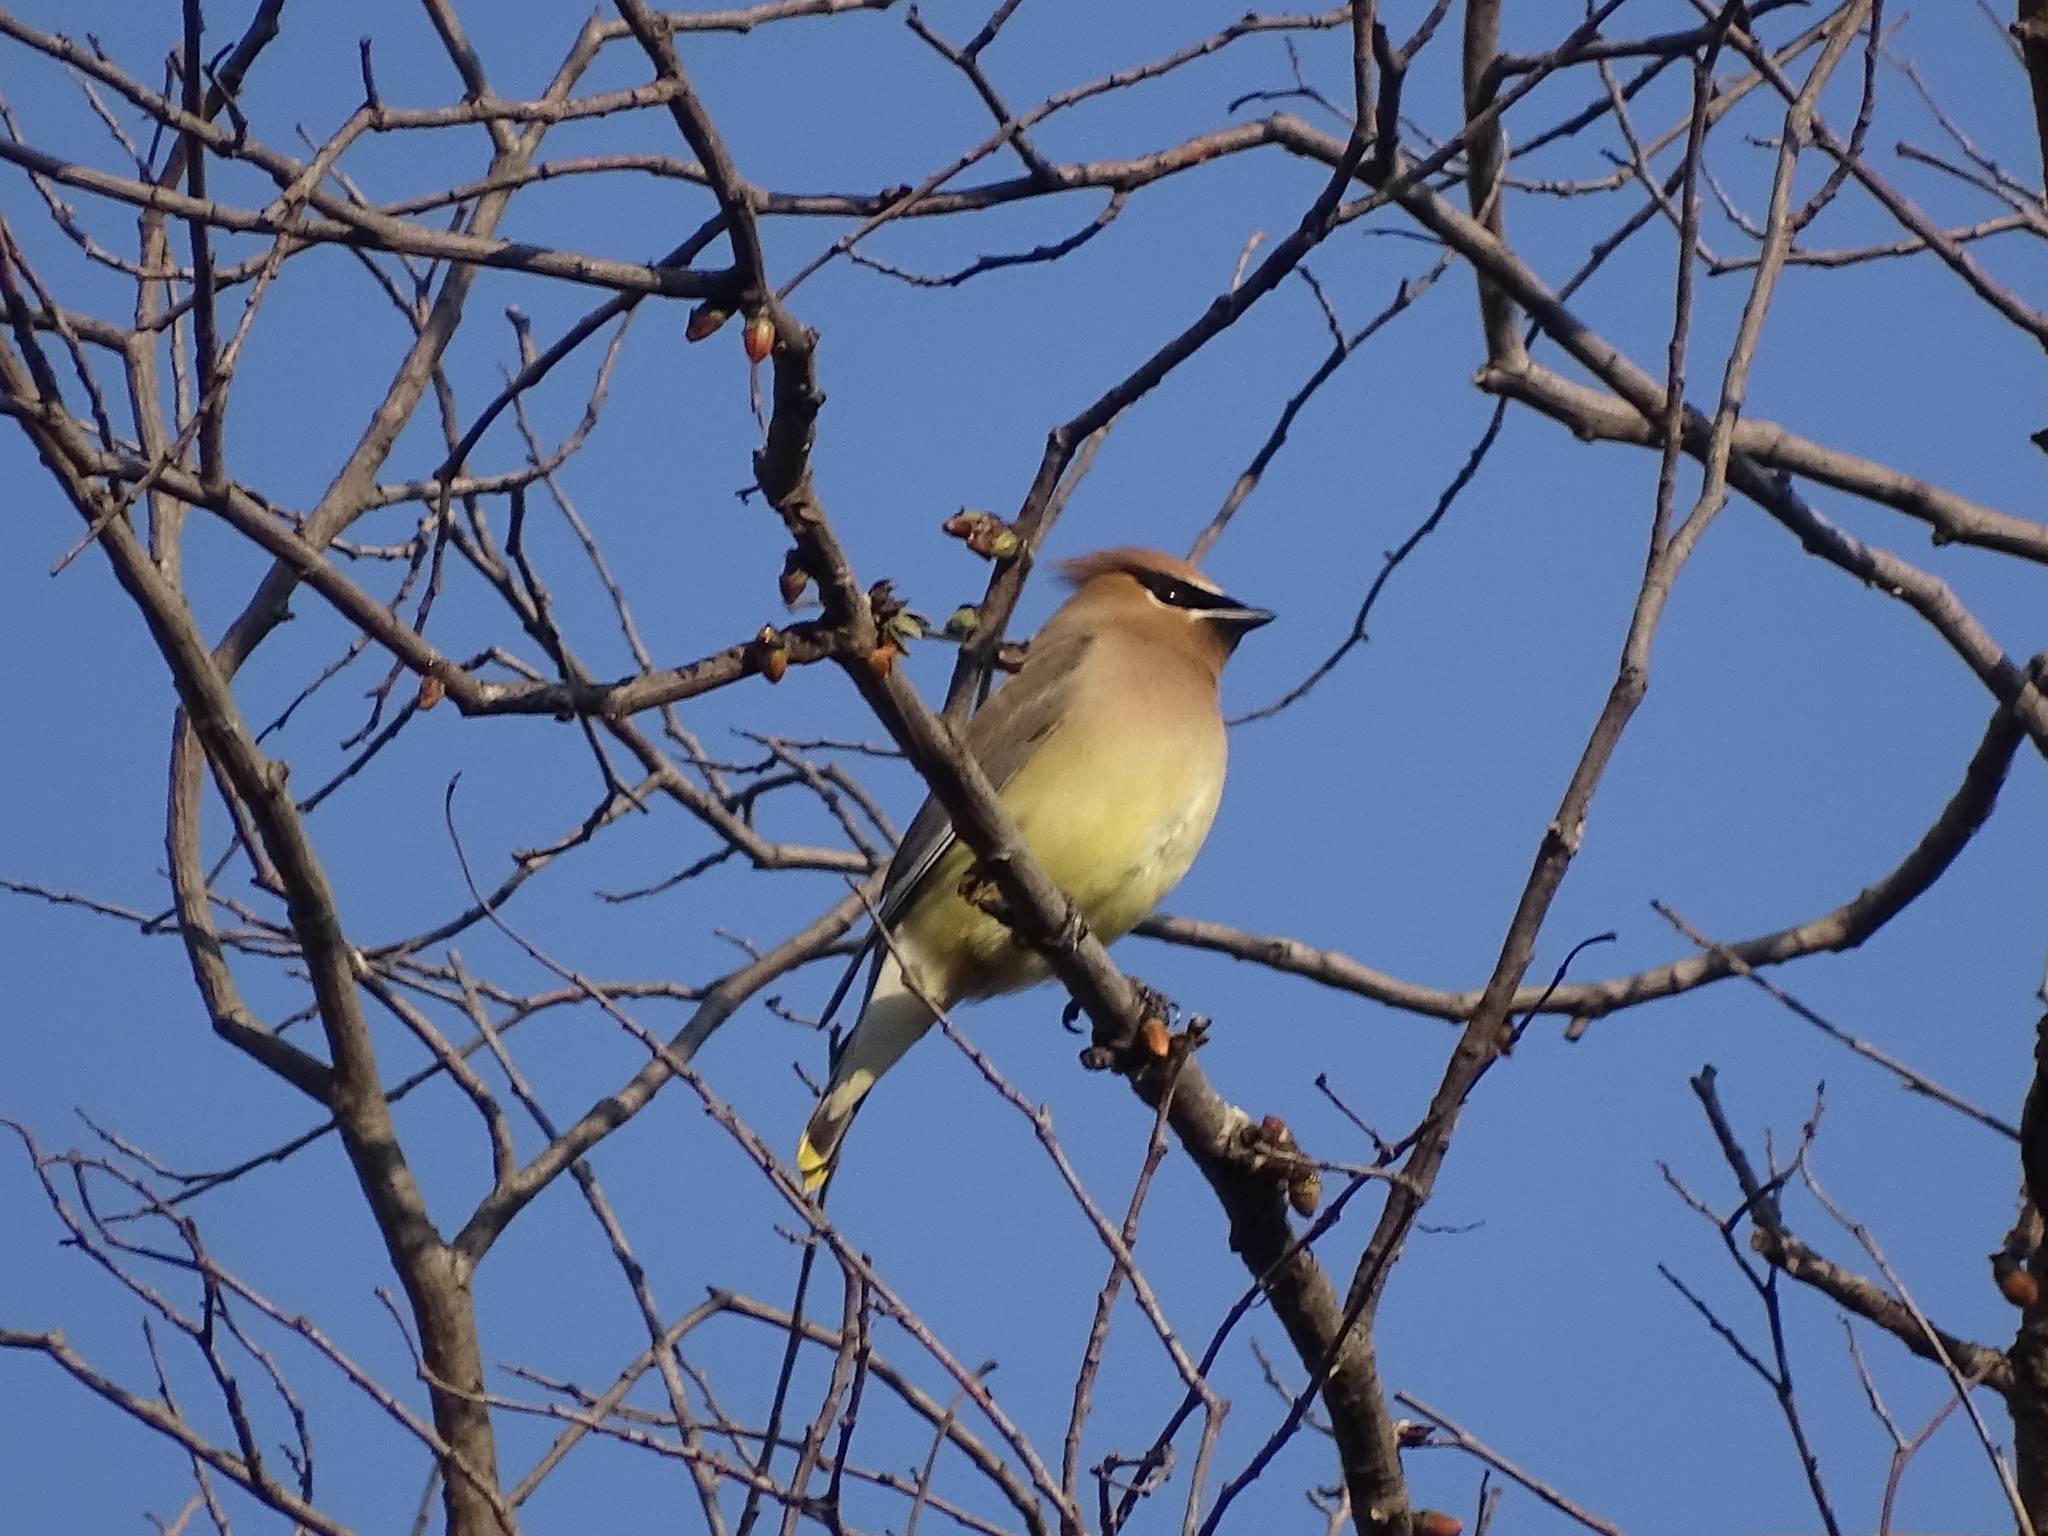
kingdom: Animalia
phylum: Chordata
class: Aves
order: Passeriformes
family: Bombycillidae
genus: Bombycilla
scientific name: Bombycilla cedrorum
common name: Cedar waxwing
